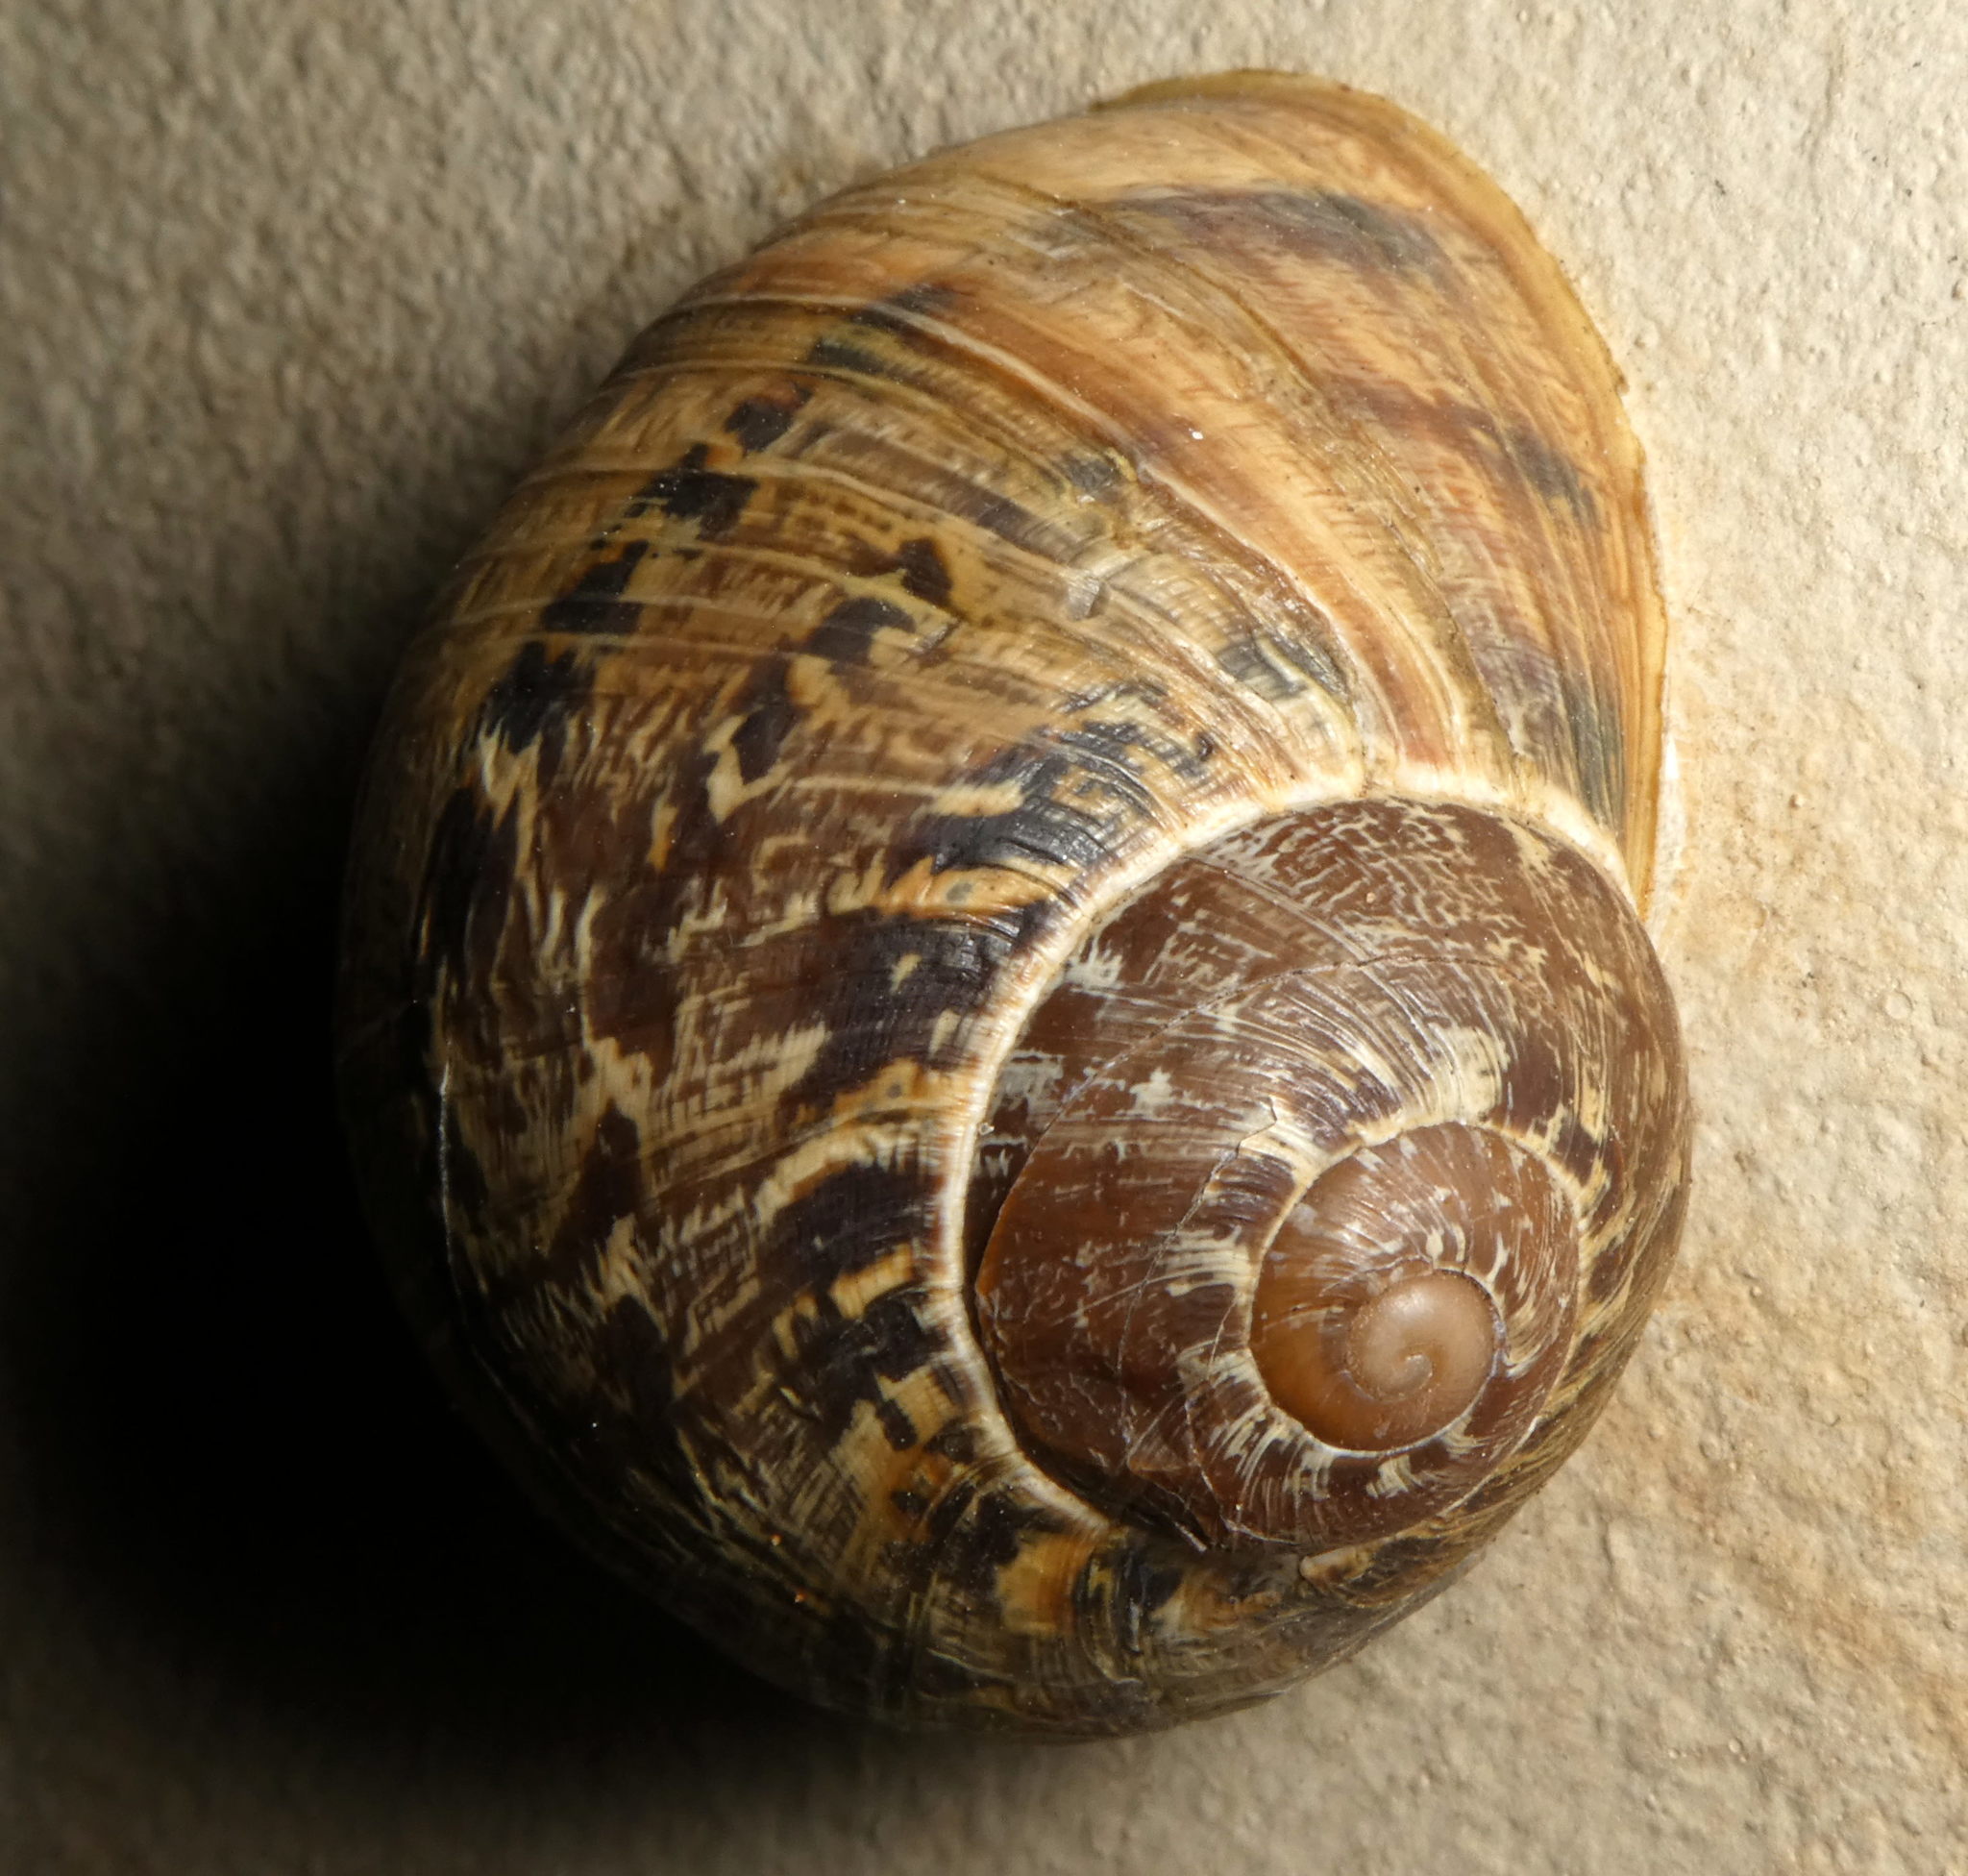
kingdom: Animalia
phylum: Mollusca
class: Gastropoda
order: Stylommatophora
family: Helicidae
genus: Cornu
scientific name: Cornu aspersum
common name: Brown garden snail
